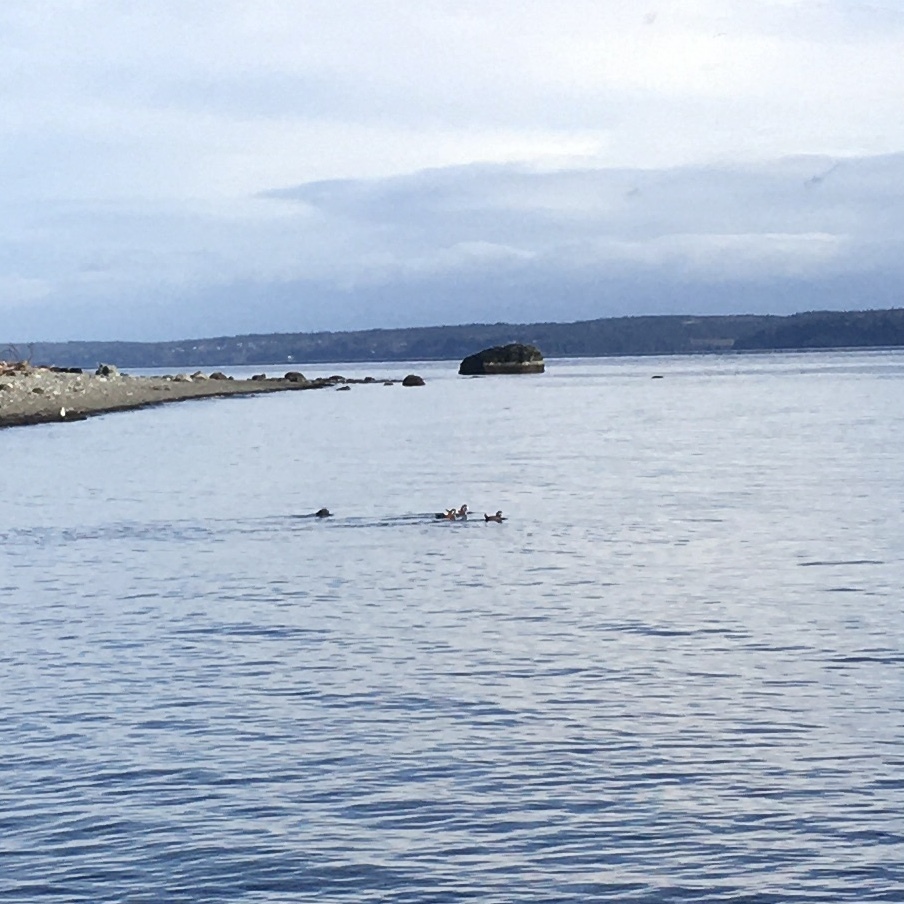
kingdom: Animalia
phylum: Chordata
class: Aves
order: Anseriformes
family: Anatidae
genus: Histrionicus
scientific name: Histrionicus histrionicus
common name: Harlequin duck
